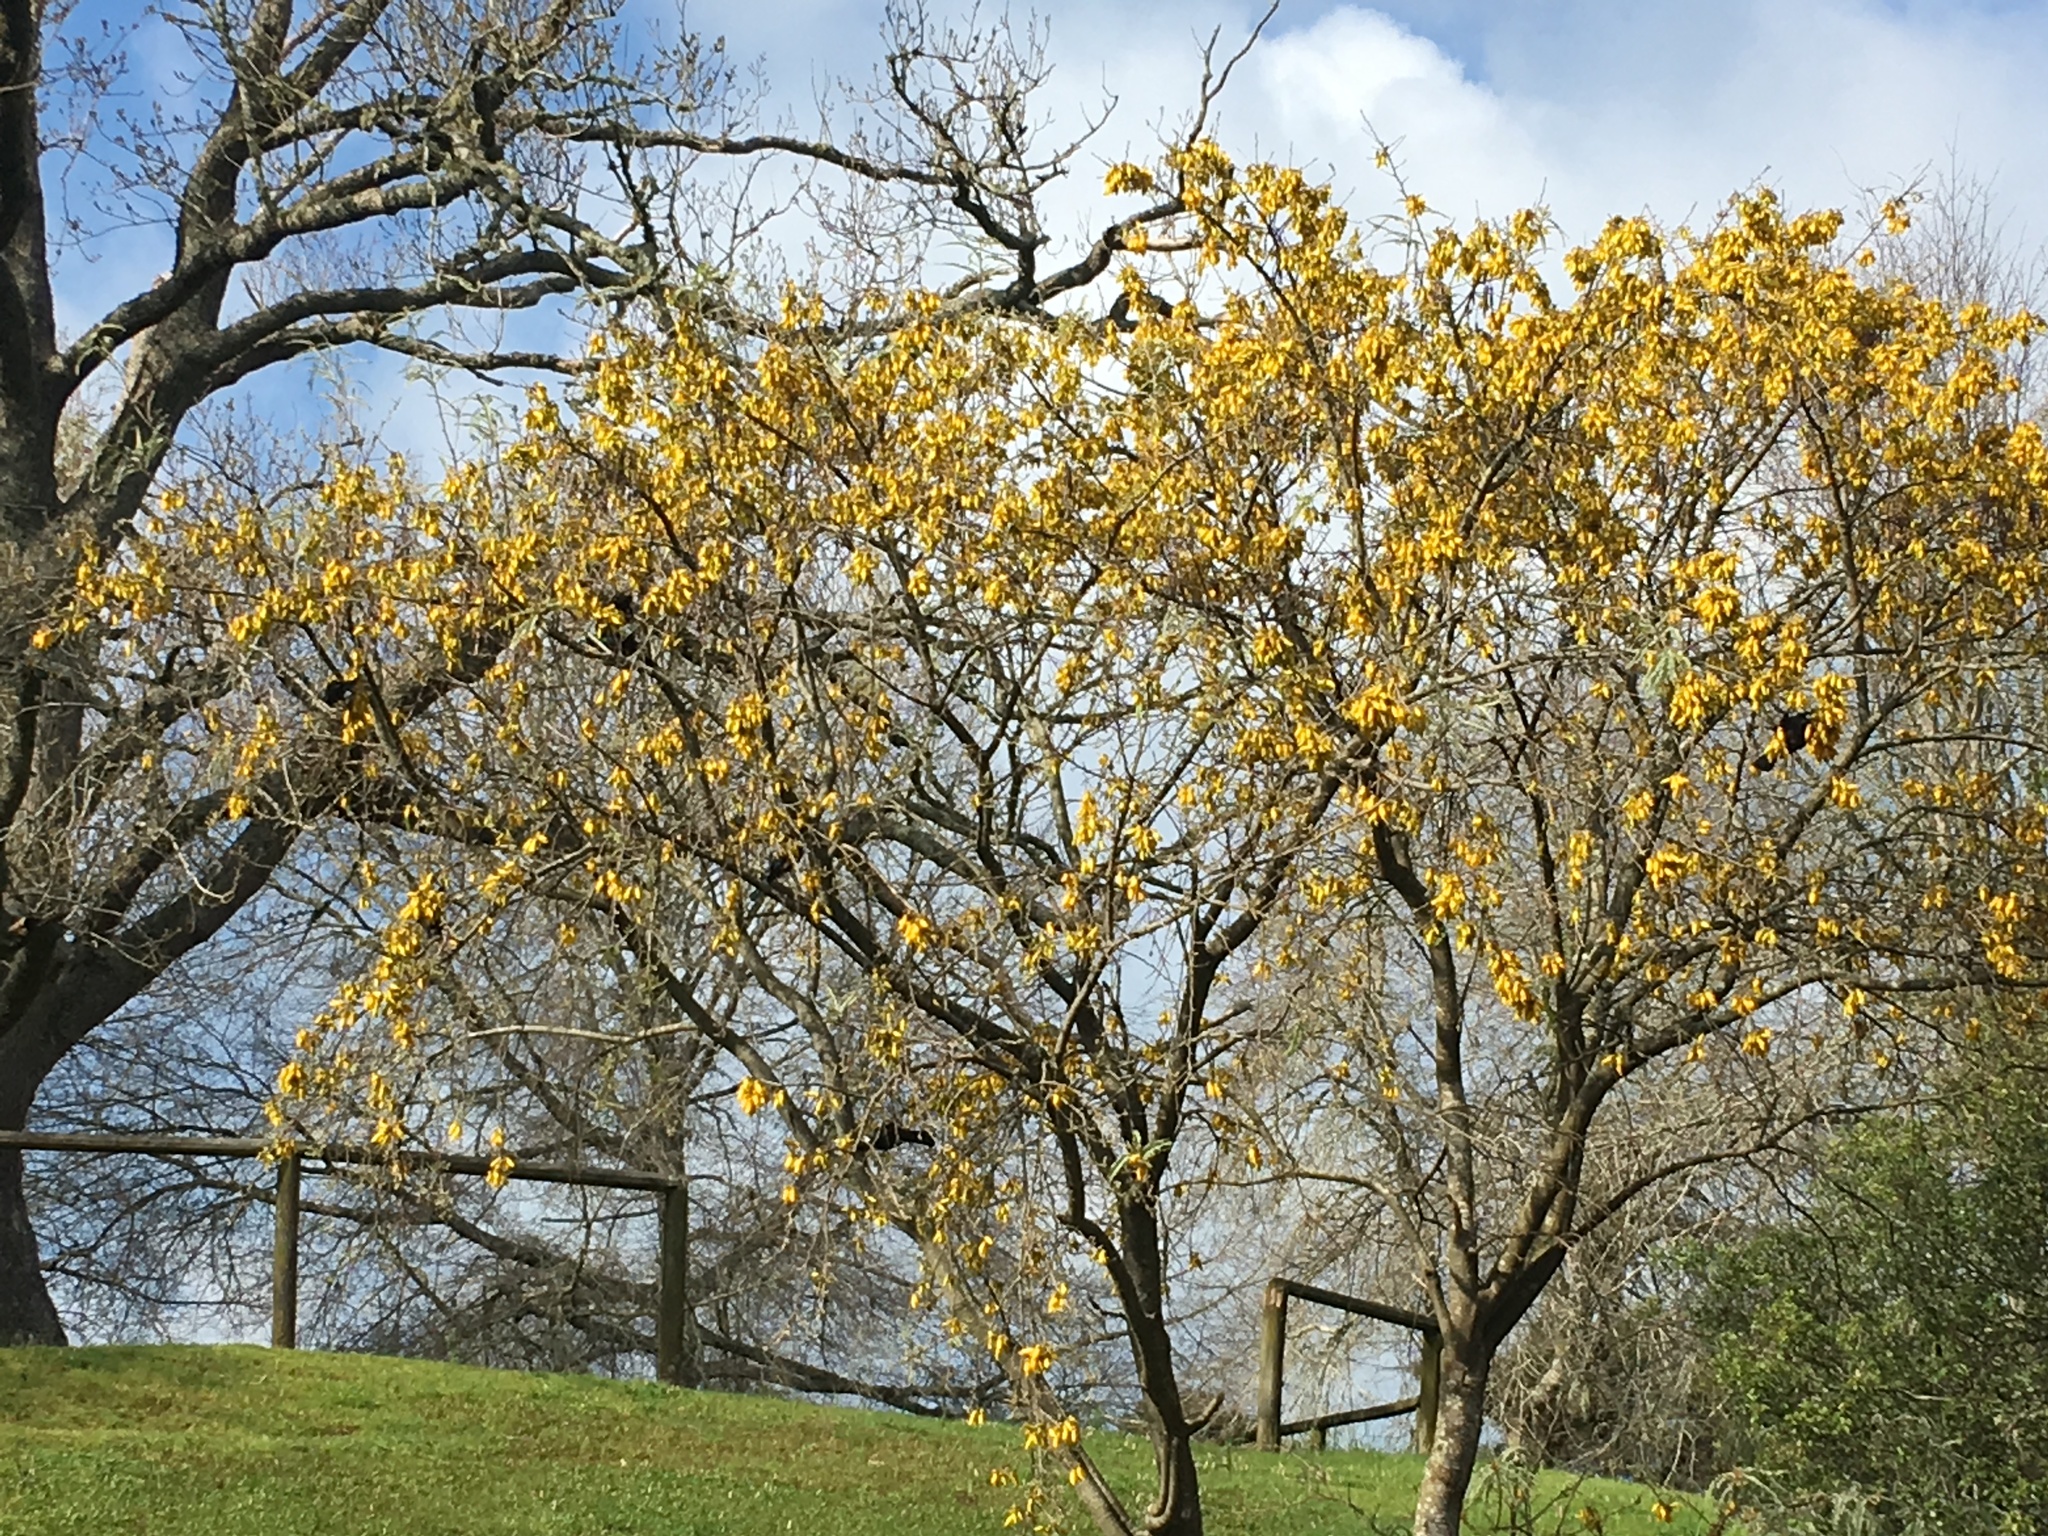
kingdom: Animalia
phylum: Chordata
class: Aves
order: Passeriformes
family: Meliphagidae
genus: Prosthemadera
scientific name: Prosthemadera novaeseelandiae
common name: Tui
